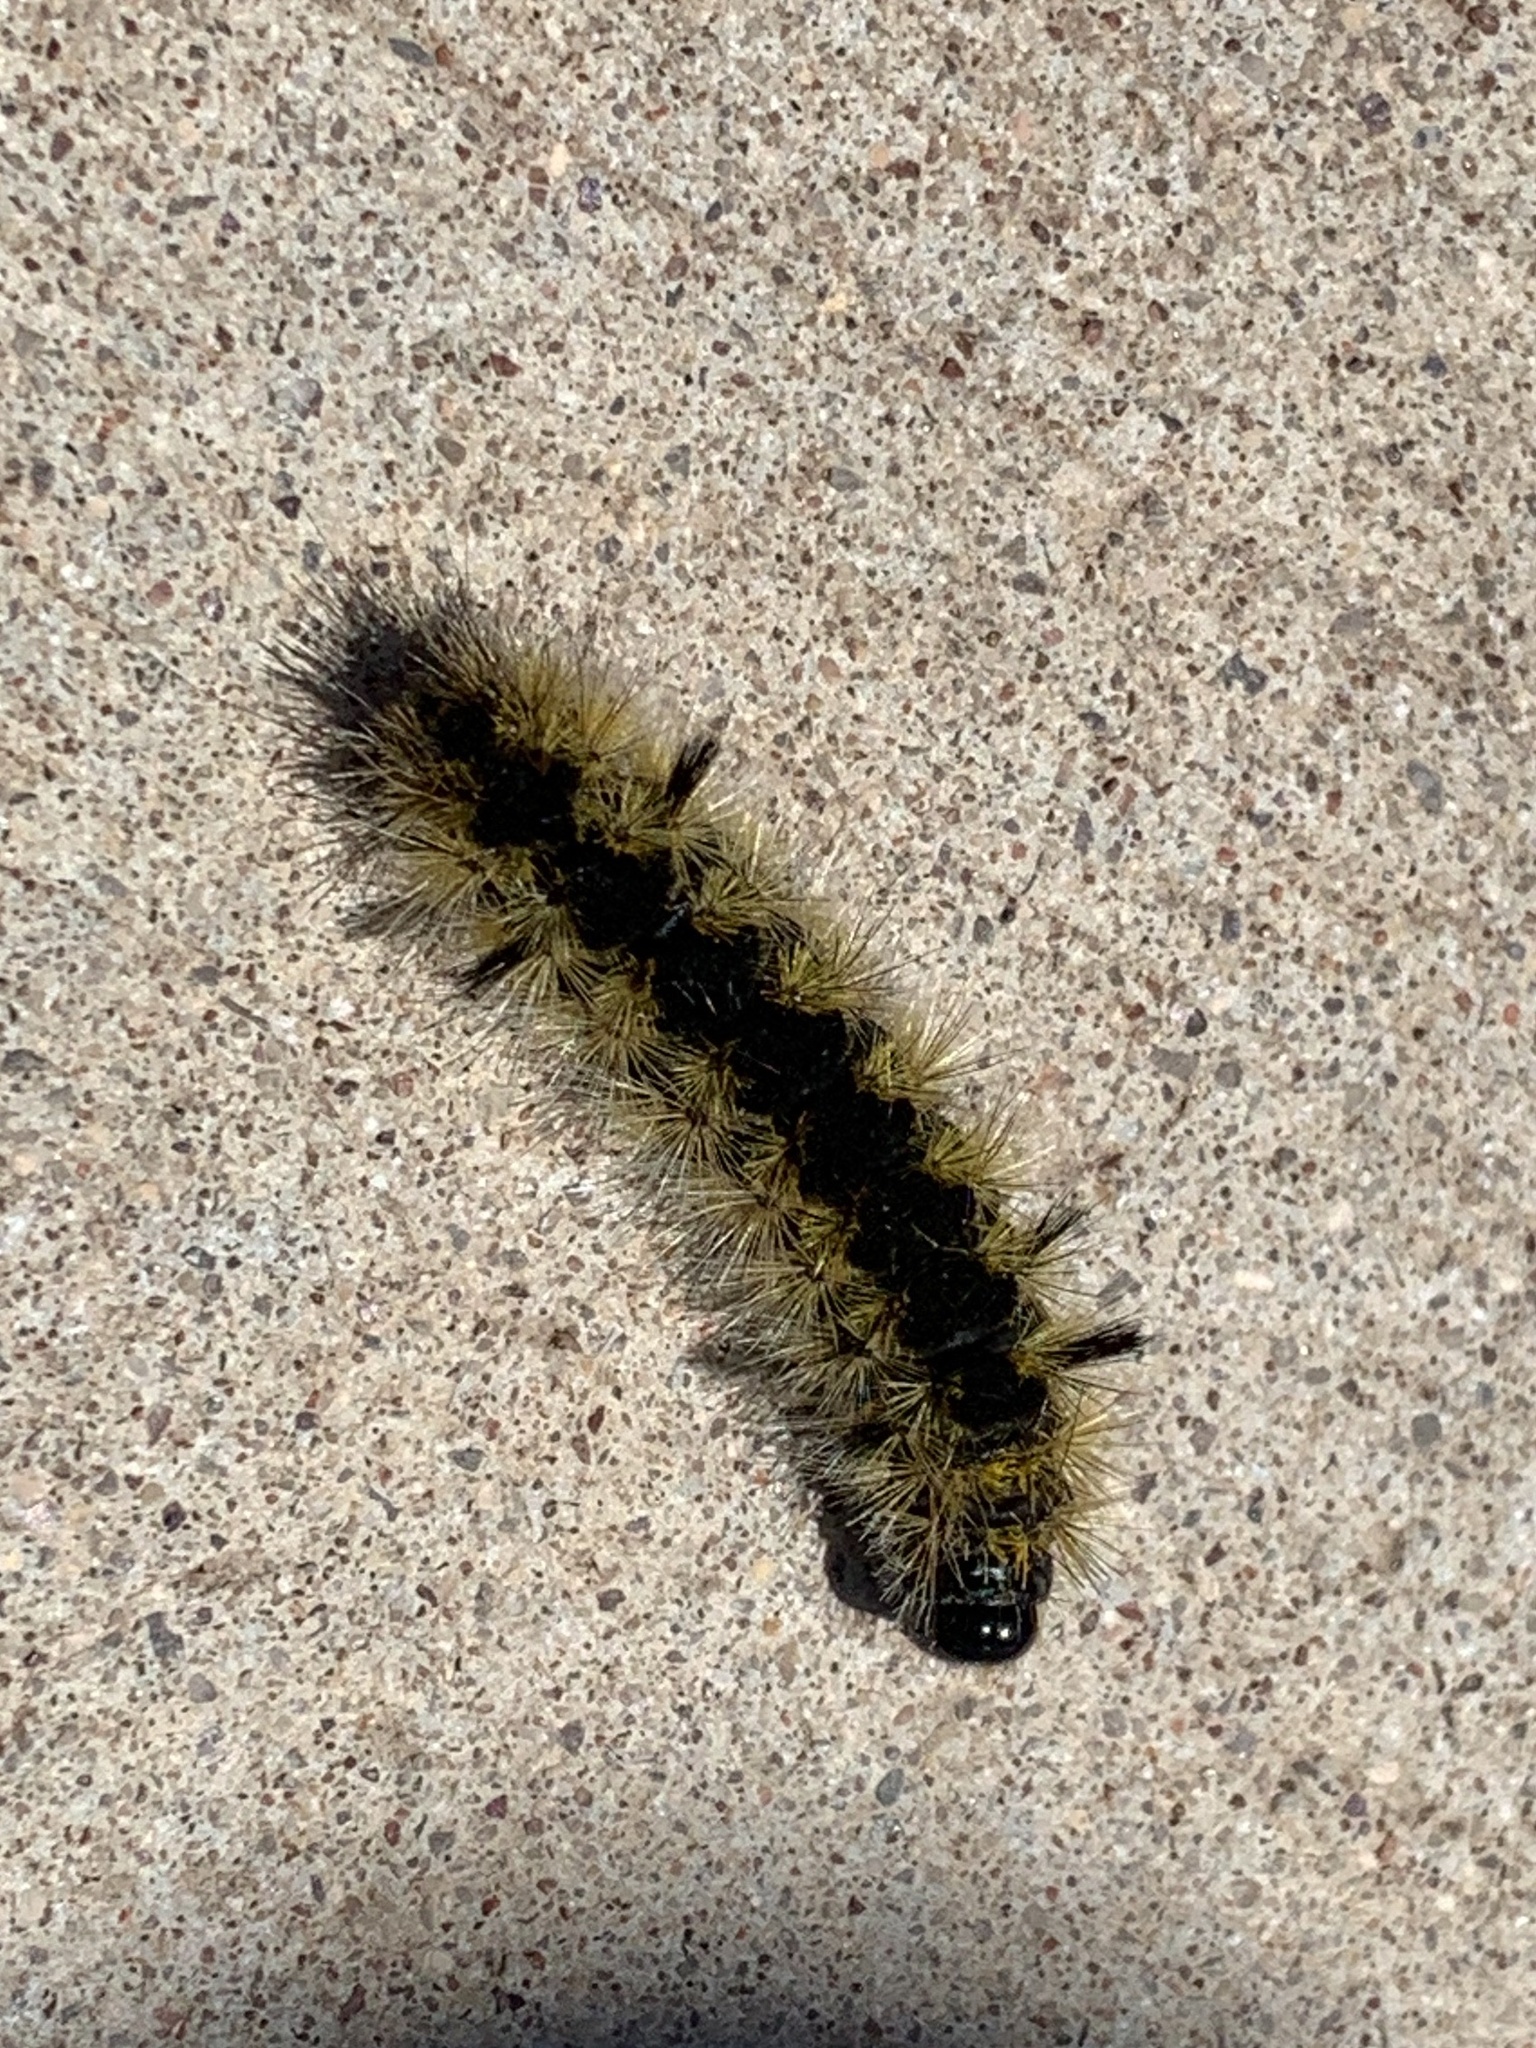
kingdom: Animalia
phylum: Arthropoda
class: Insecta
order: Lepidoptera
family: Erebidae
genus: Lophocampa
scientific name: Lophocampa argentata
